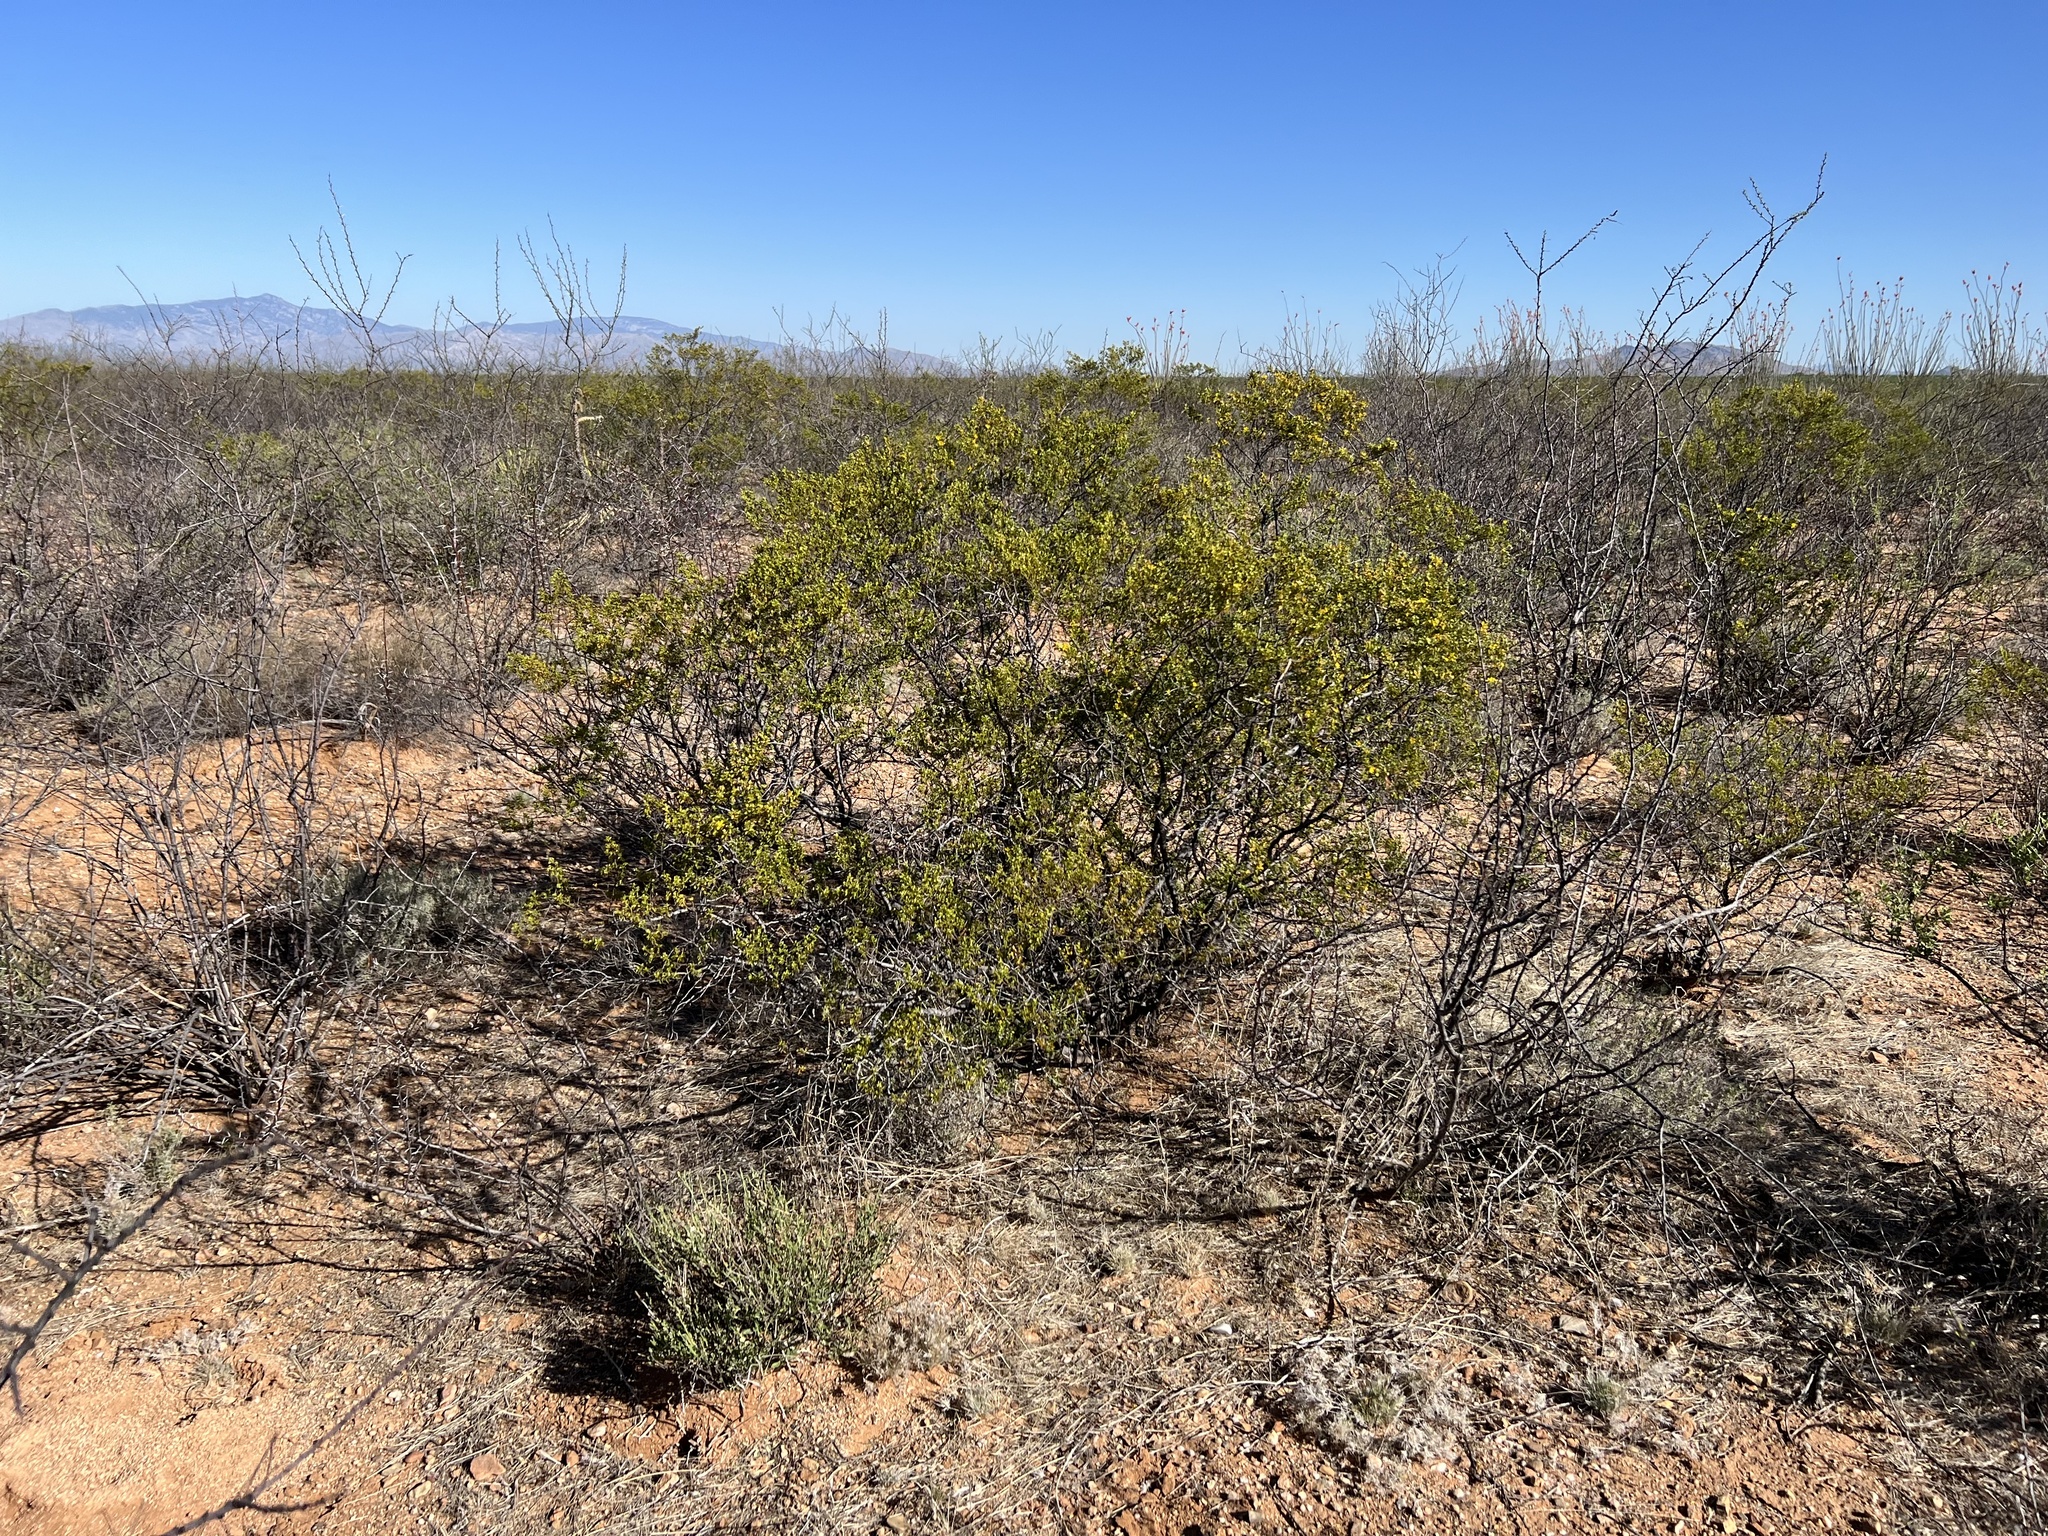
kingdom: Plantae
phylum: Tracheophyta
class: Magnoliopsida
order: Zygophyllales
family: Zygophyllaceae
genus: Larrea
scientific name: Larrea tridentata
